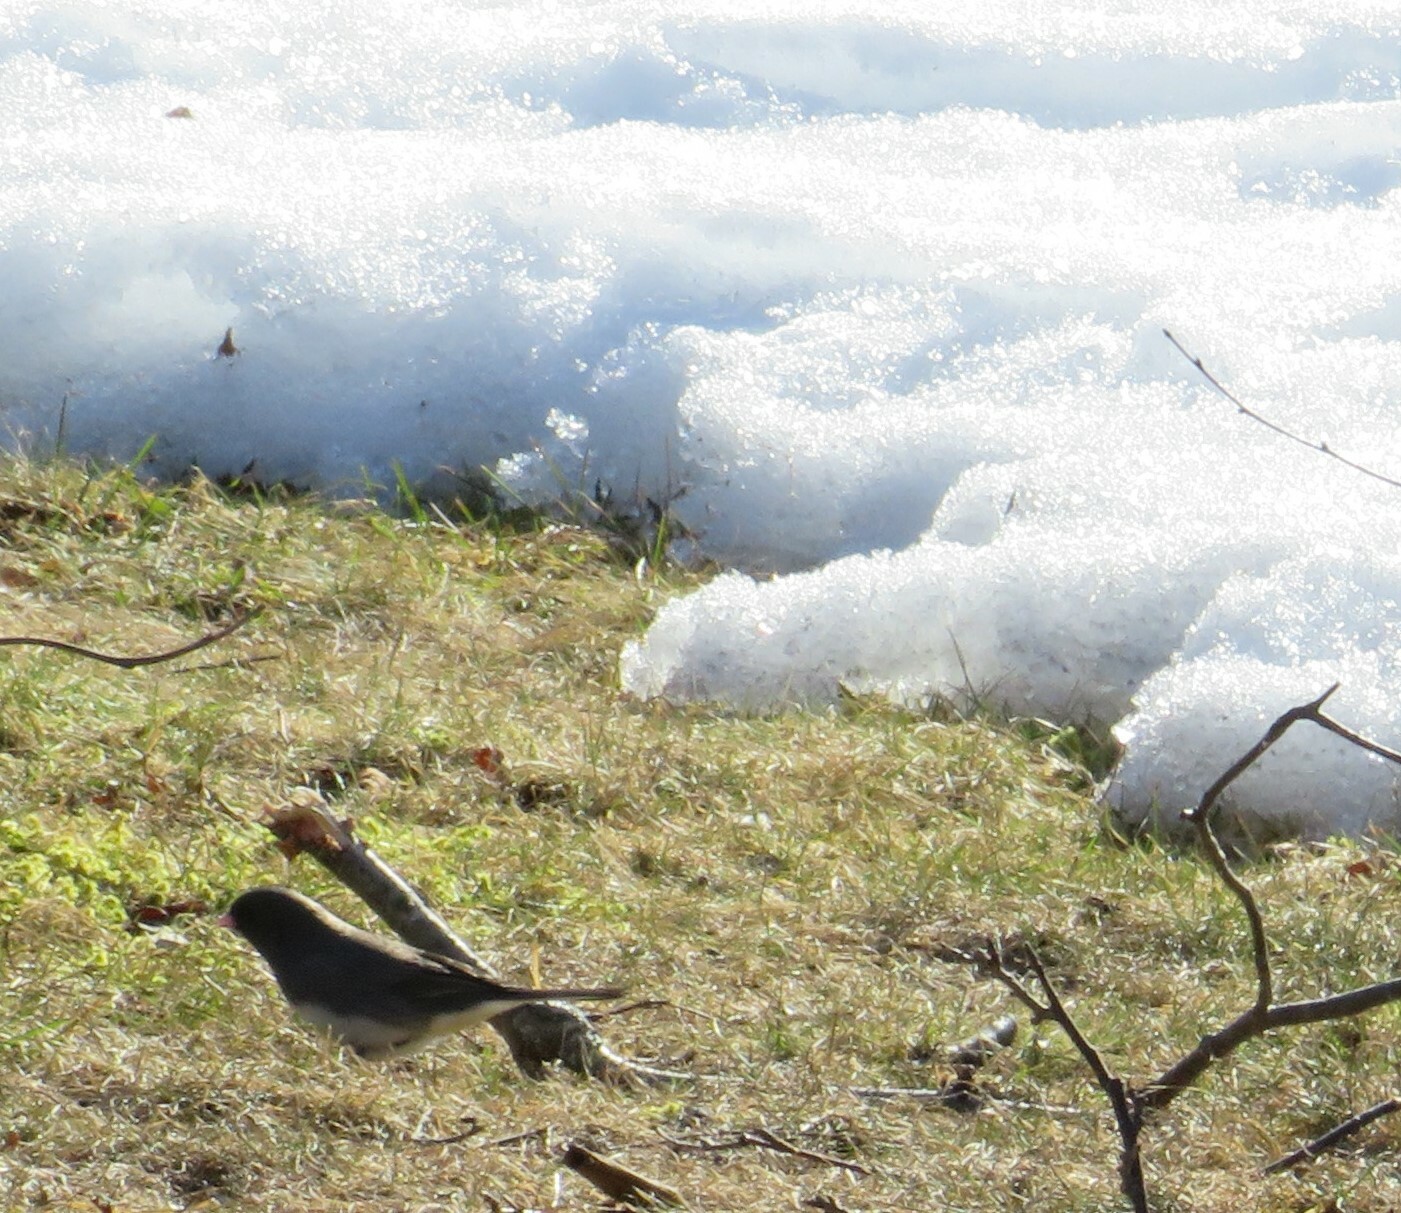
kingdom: Animalia
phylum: Chordata
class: Aves
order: Passeriformes
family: Passerellidae
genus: Junco
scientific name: Junco hyemalis
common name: Dark-eyed junco
